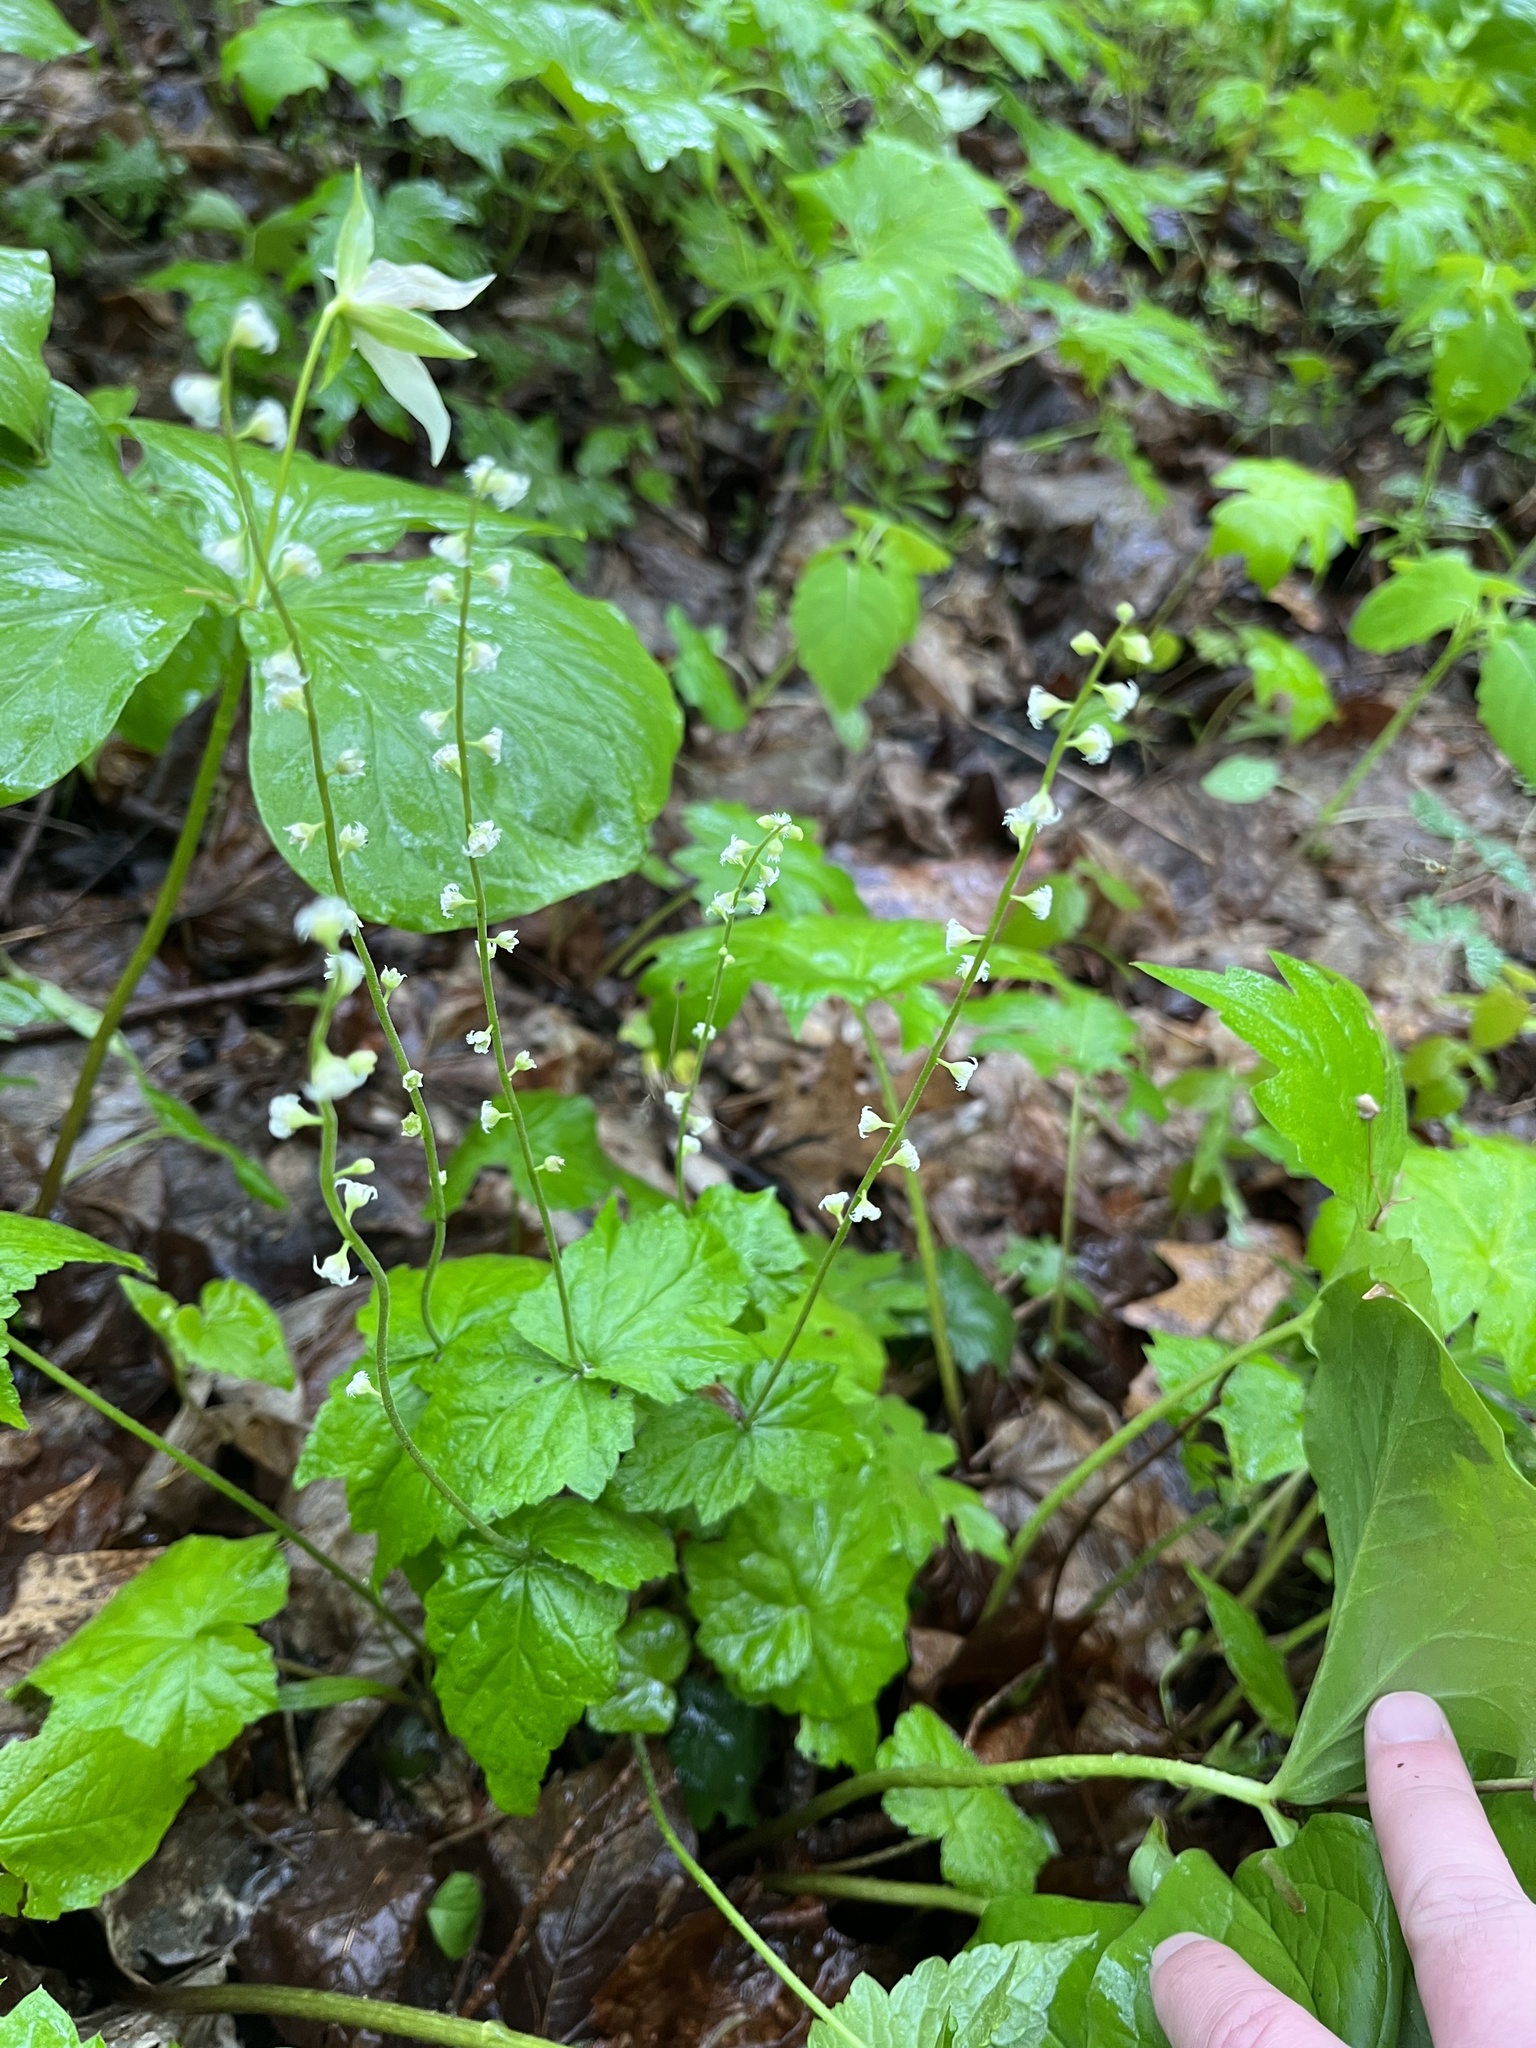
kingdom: Plantae
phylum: Tracheophyta
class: Magnoliopsida
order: Saxifragales
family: Saxifragaceae
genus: Mitella
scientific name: Mitella diphylla
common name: Coolwort
